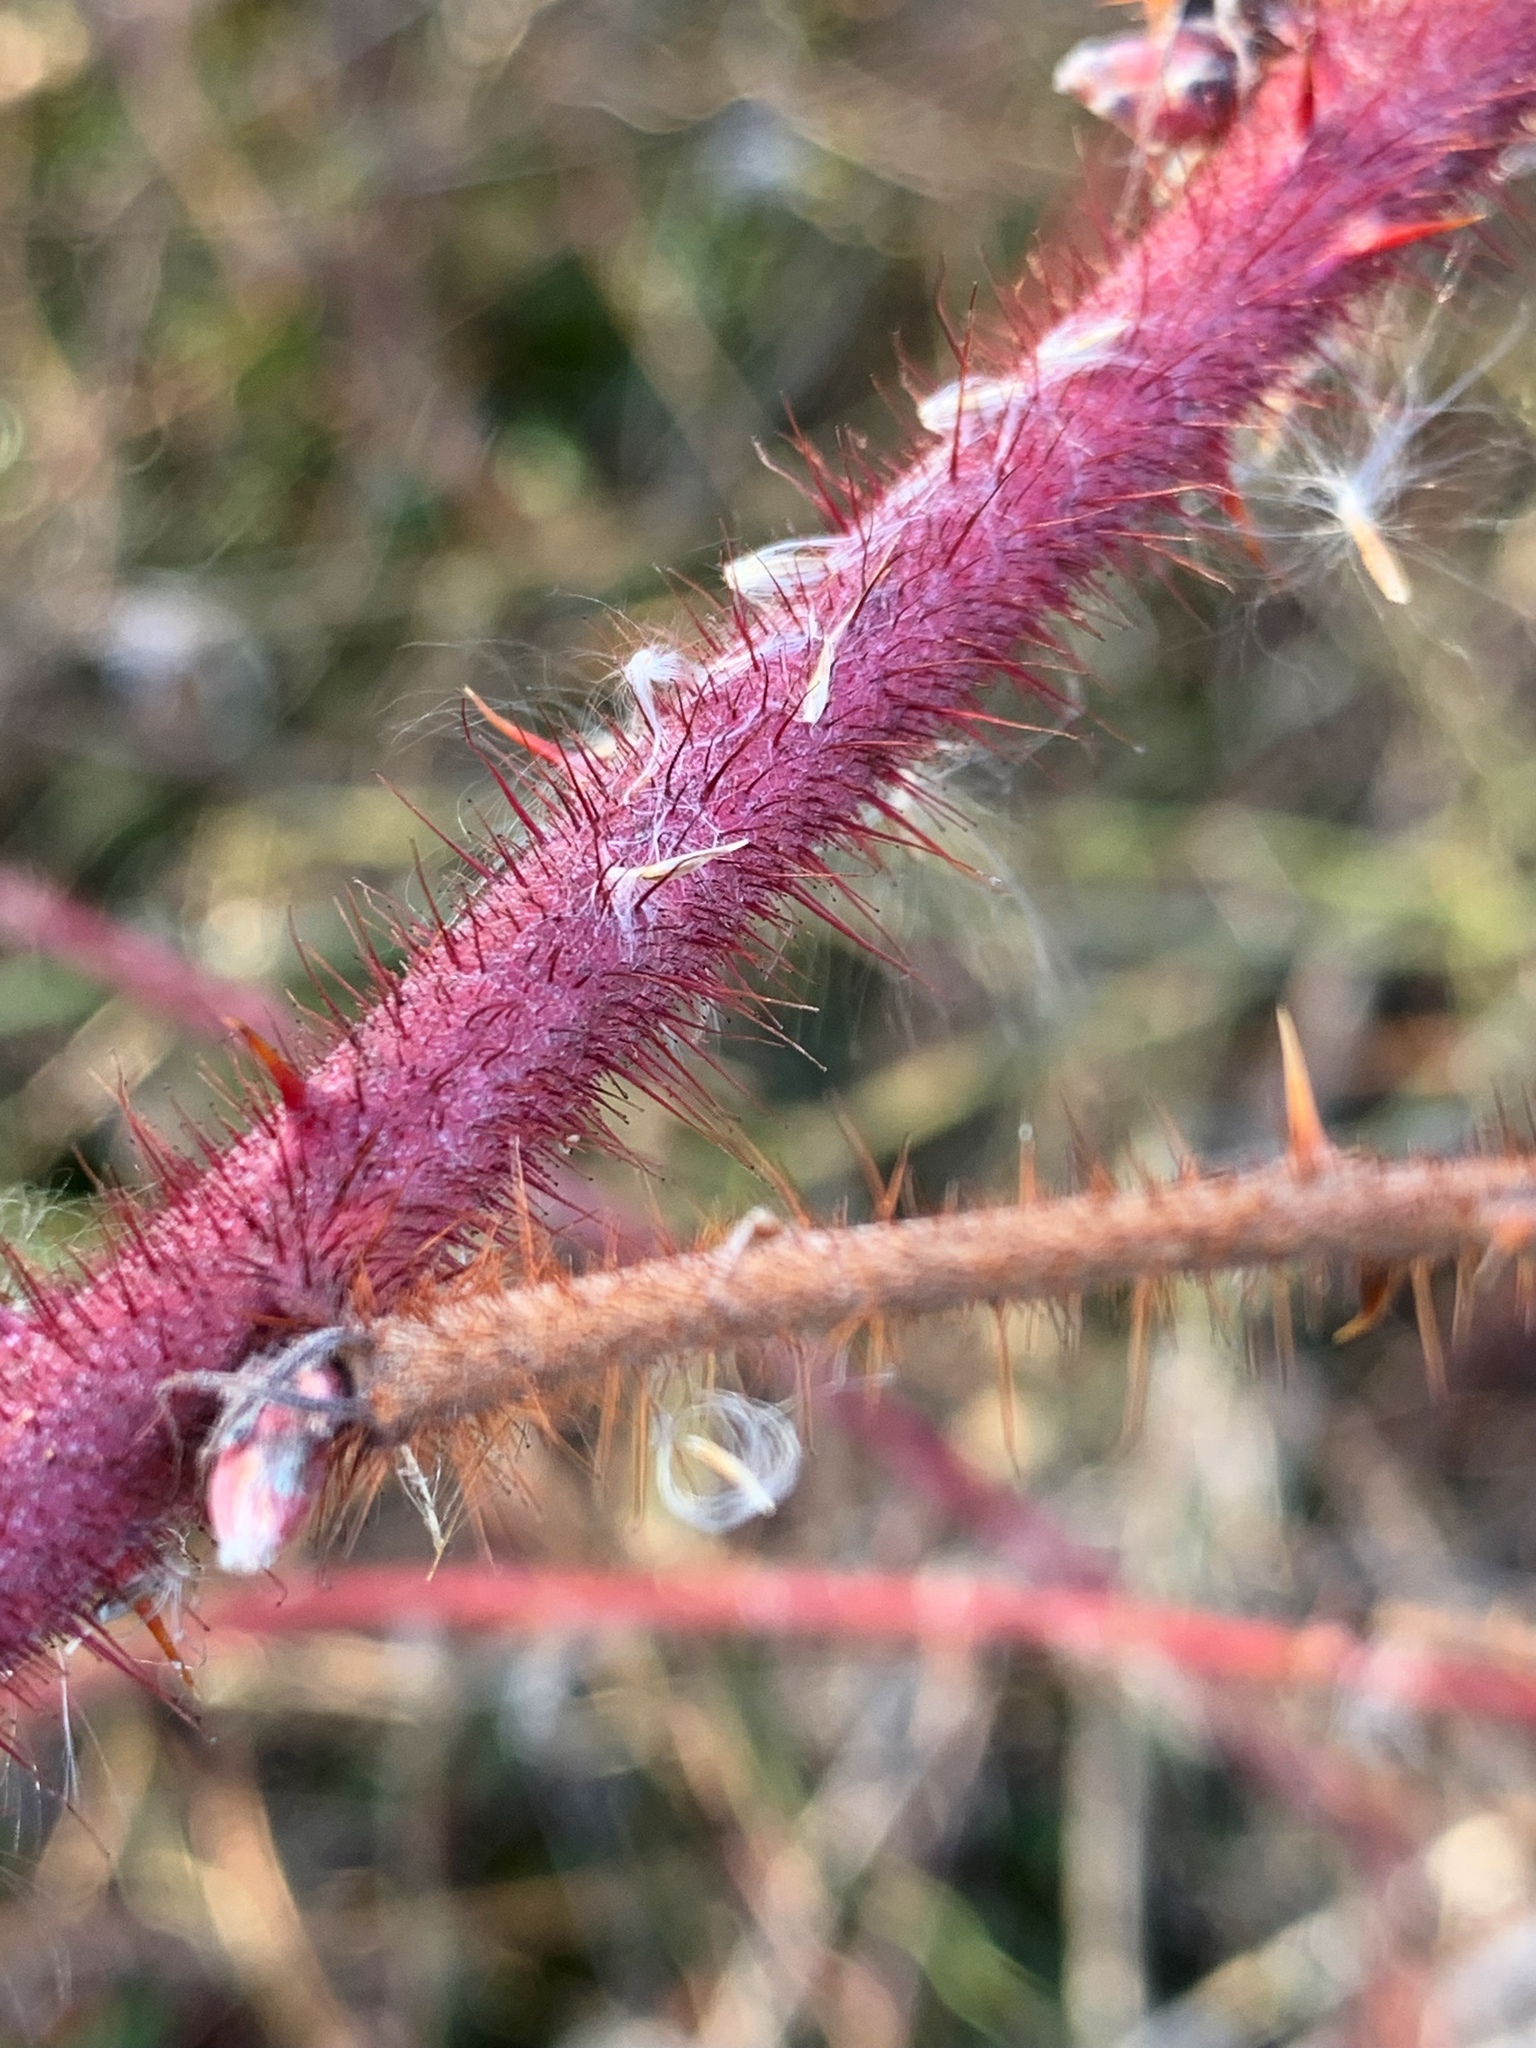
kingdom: Plantae
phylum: Tracheophyta
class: Magnoliopsida
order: Rosales
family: Rosaceae
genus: Rubus
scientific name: Rubus phoenicolasius
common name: Japanese wineberry
